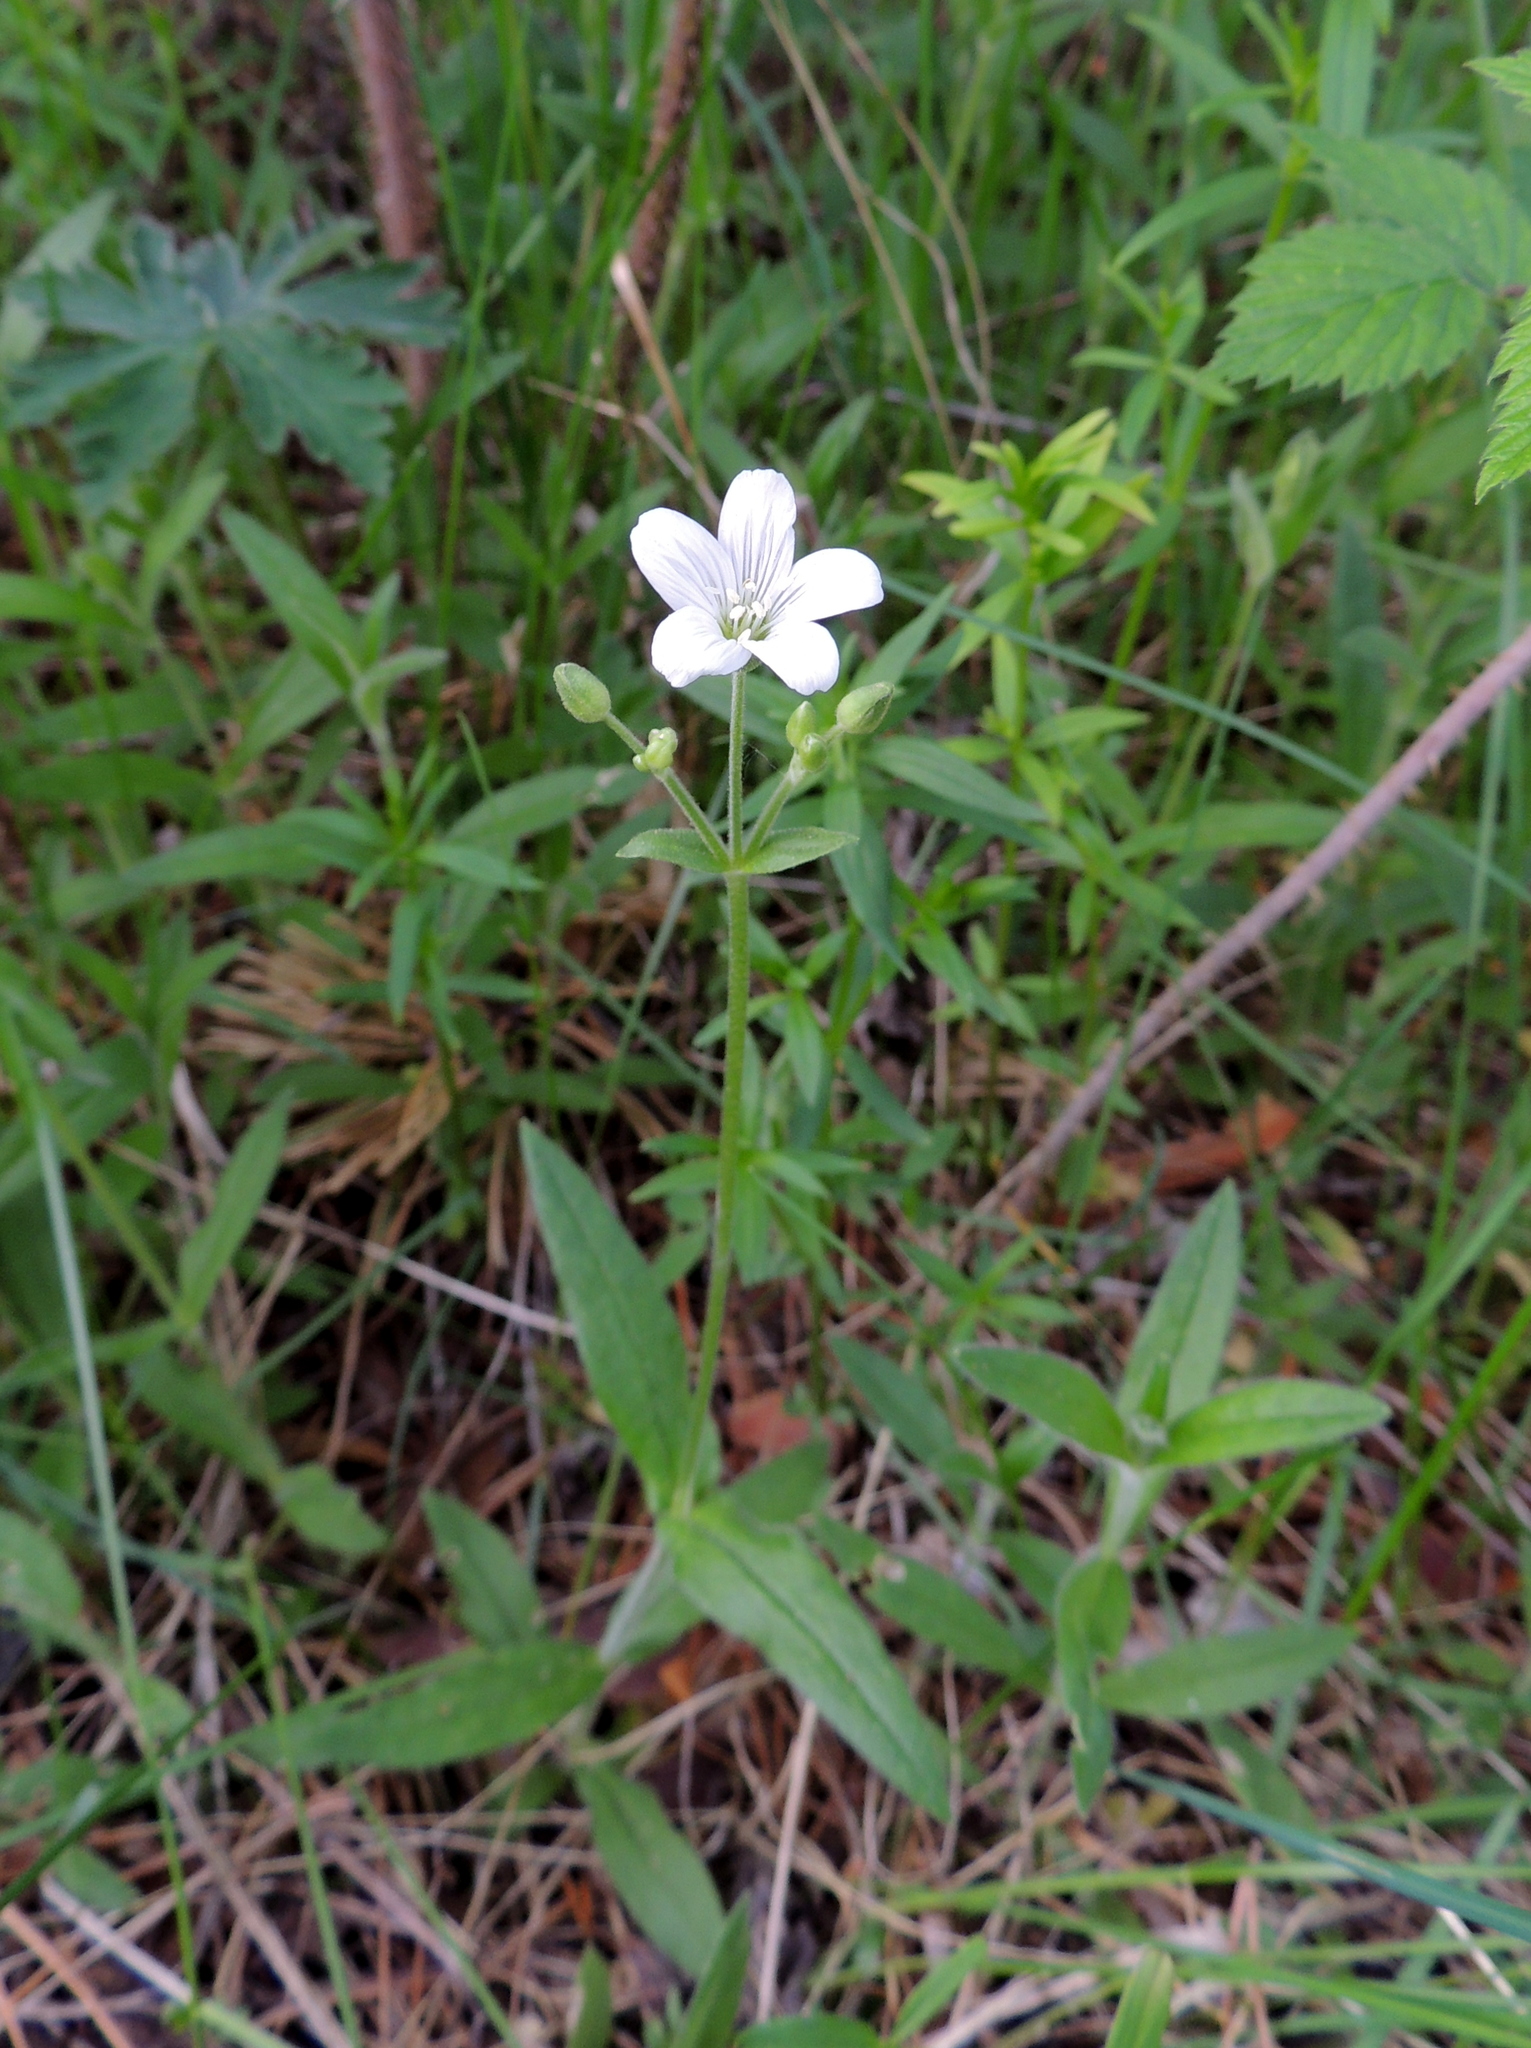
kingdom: Plantae
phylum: Tracheophyta
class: Magnoliopsida
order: Caryophyllales
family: Caryophyllaceae
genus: Cerastium
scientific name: Cerastium pauciflorum
